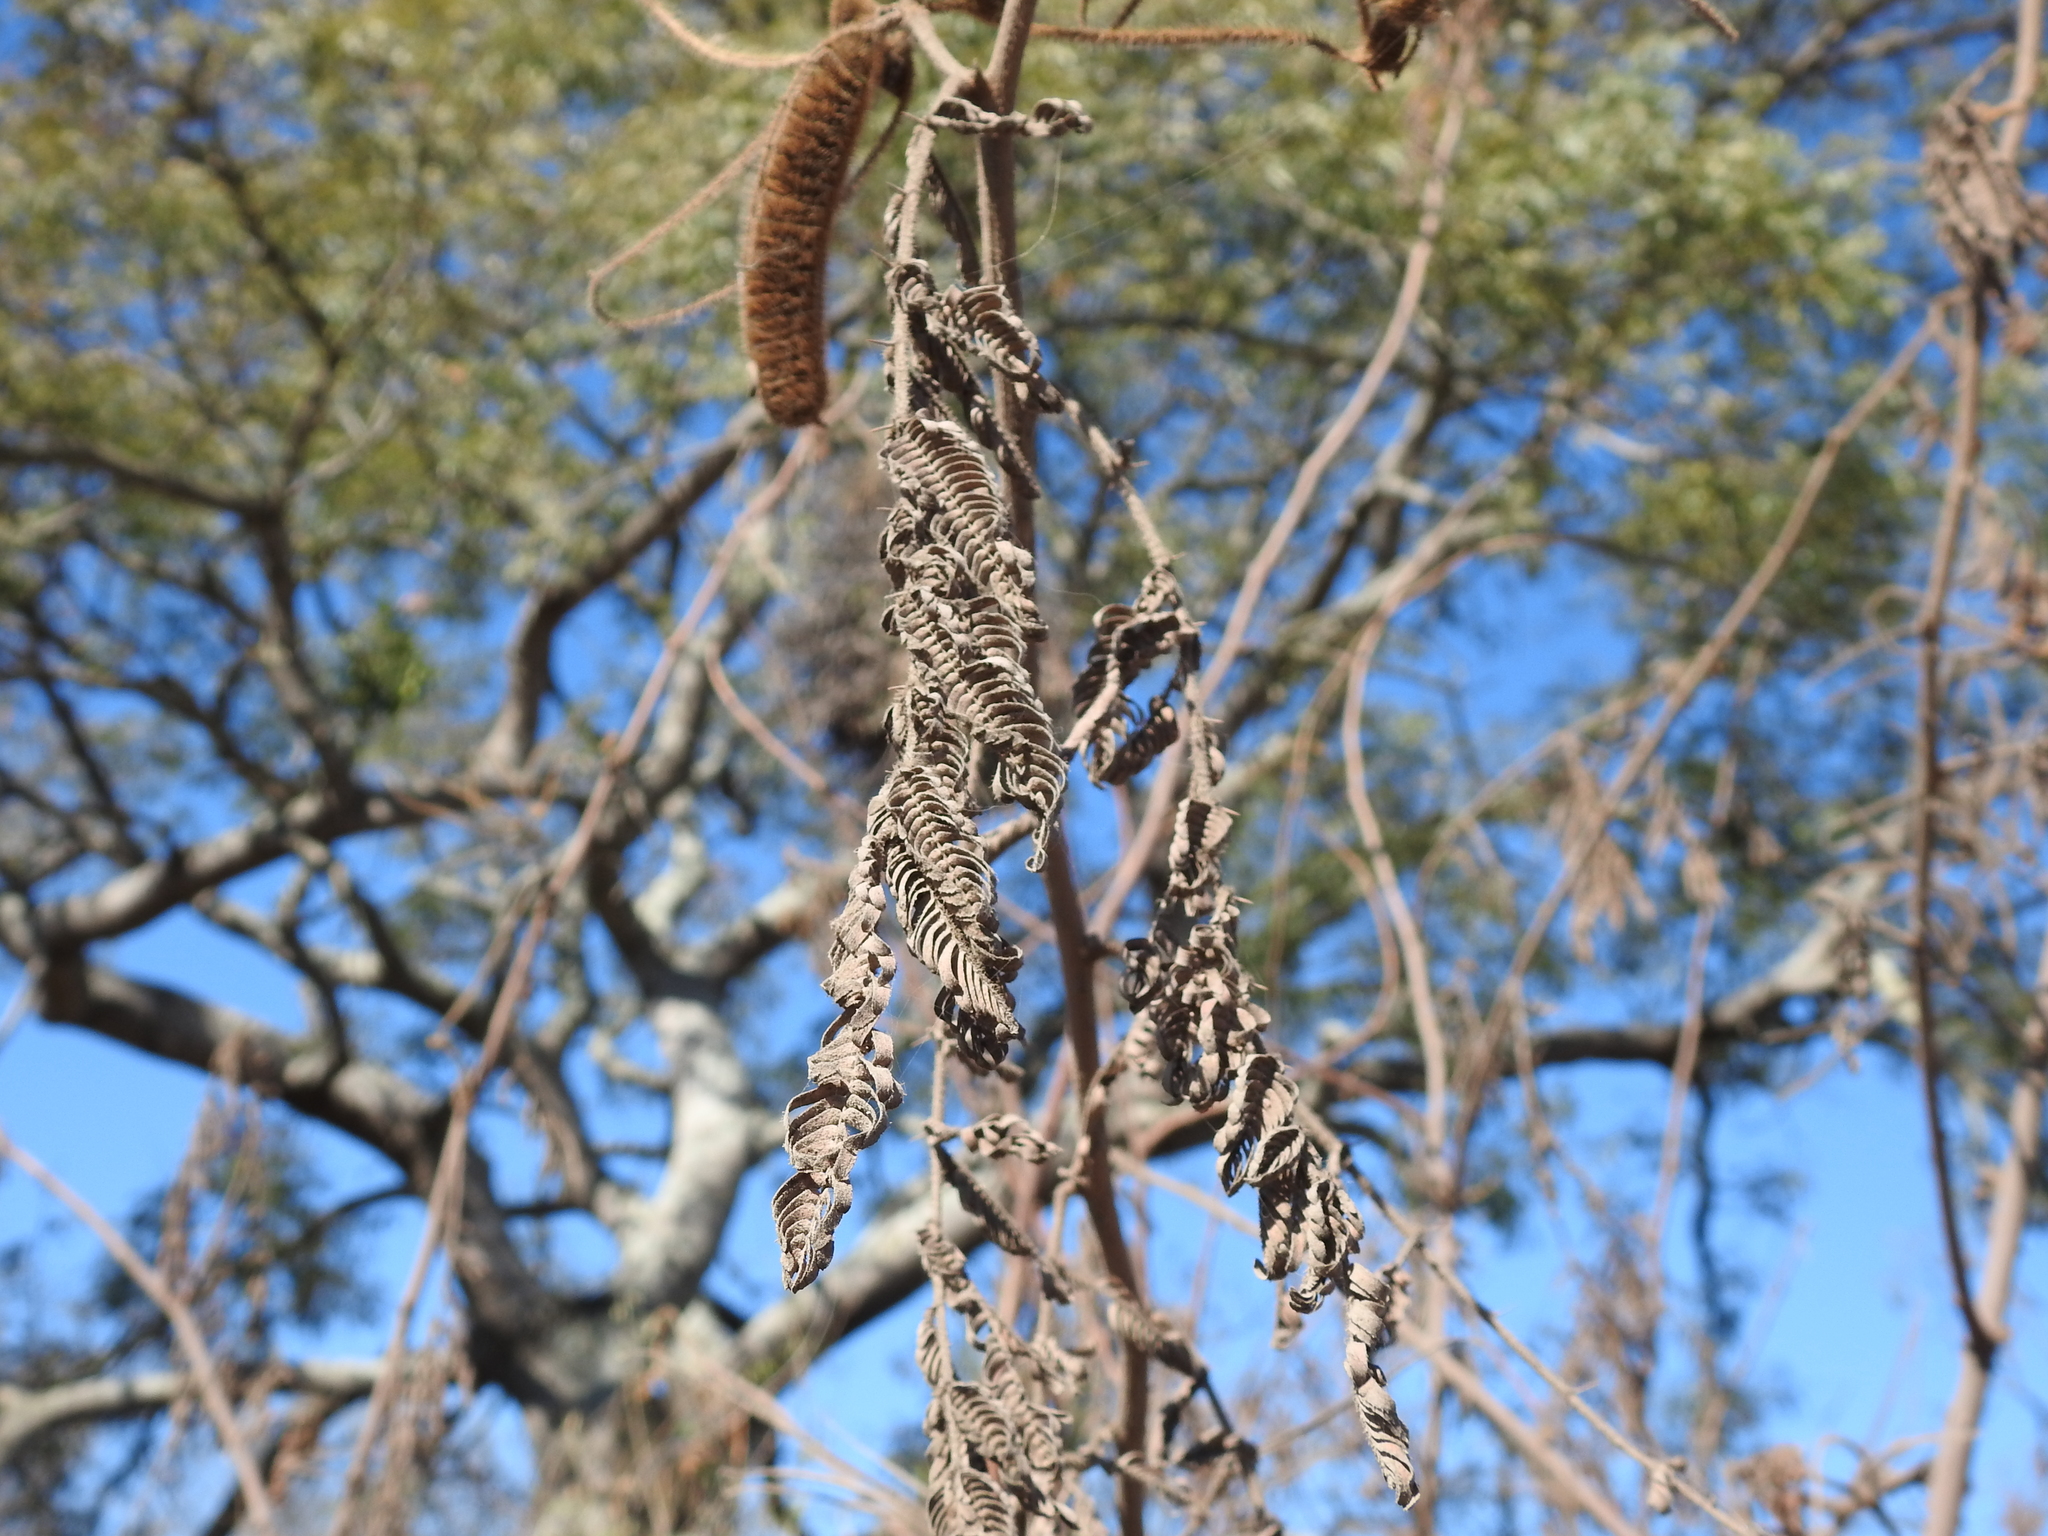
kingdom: Plantae
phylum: Tracheophyta
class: Magnoliopsida
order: Fabales
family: Fabaceae
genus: Mimosa
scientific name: Mimosa pigra
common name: Black mimosa
